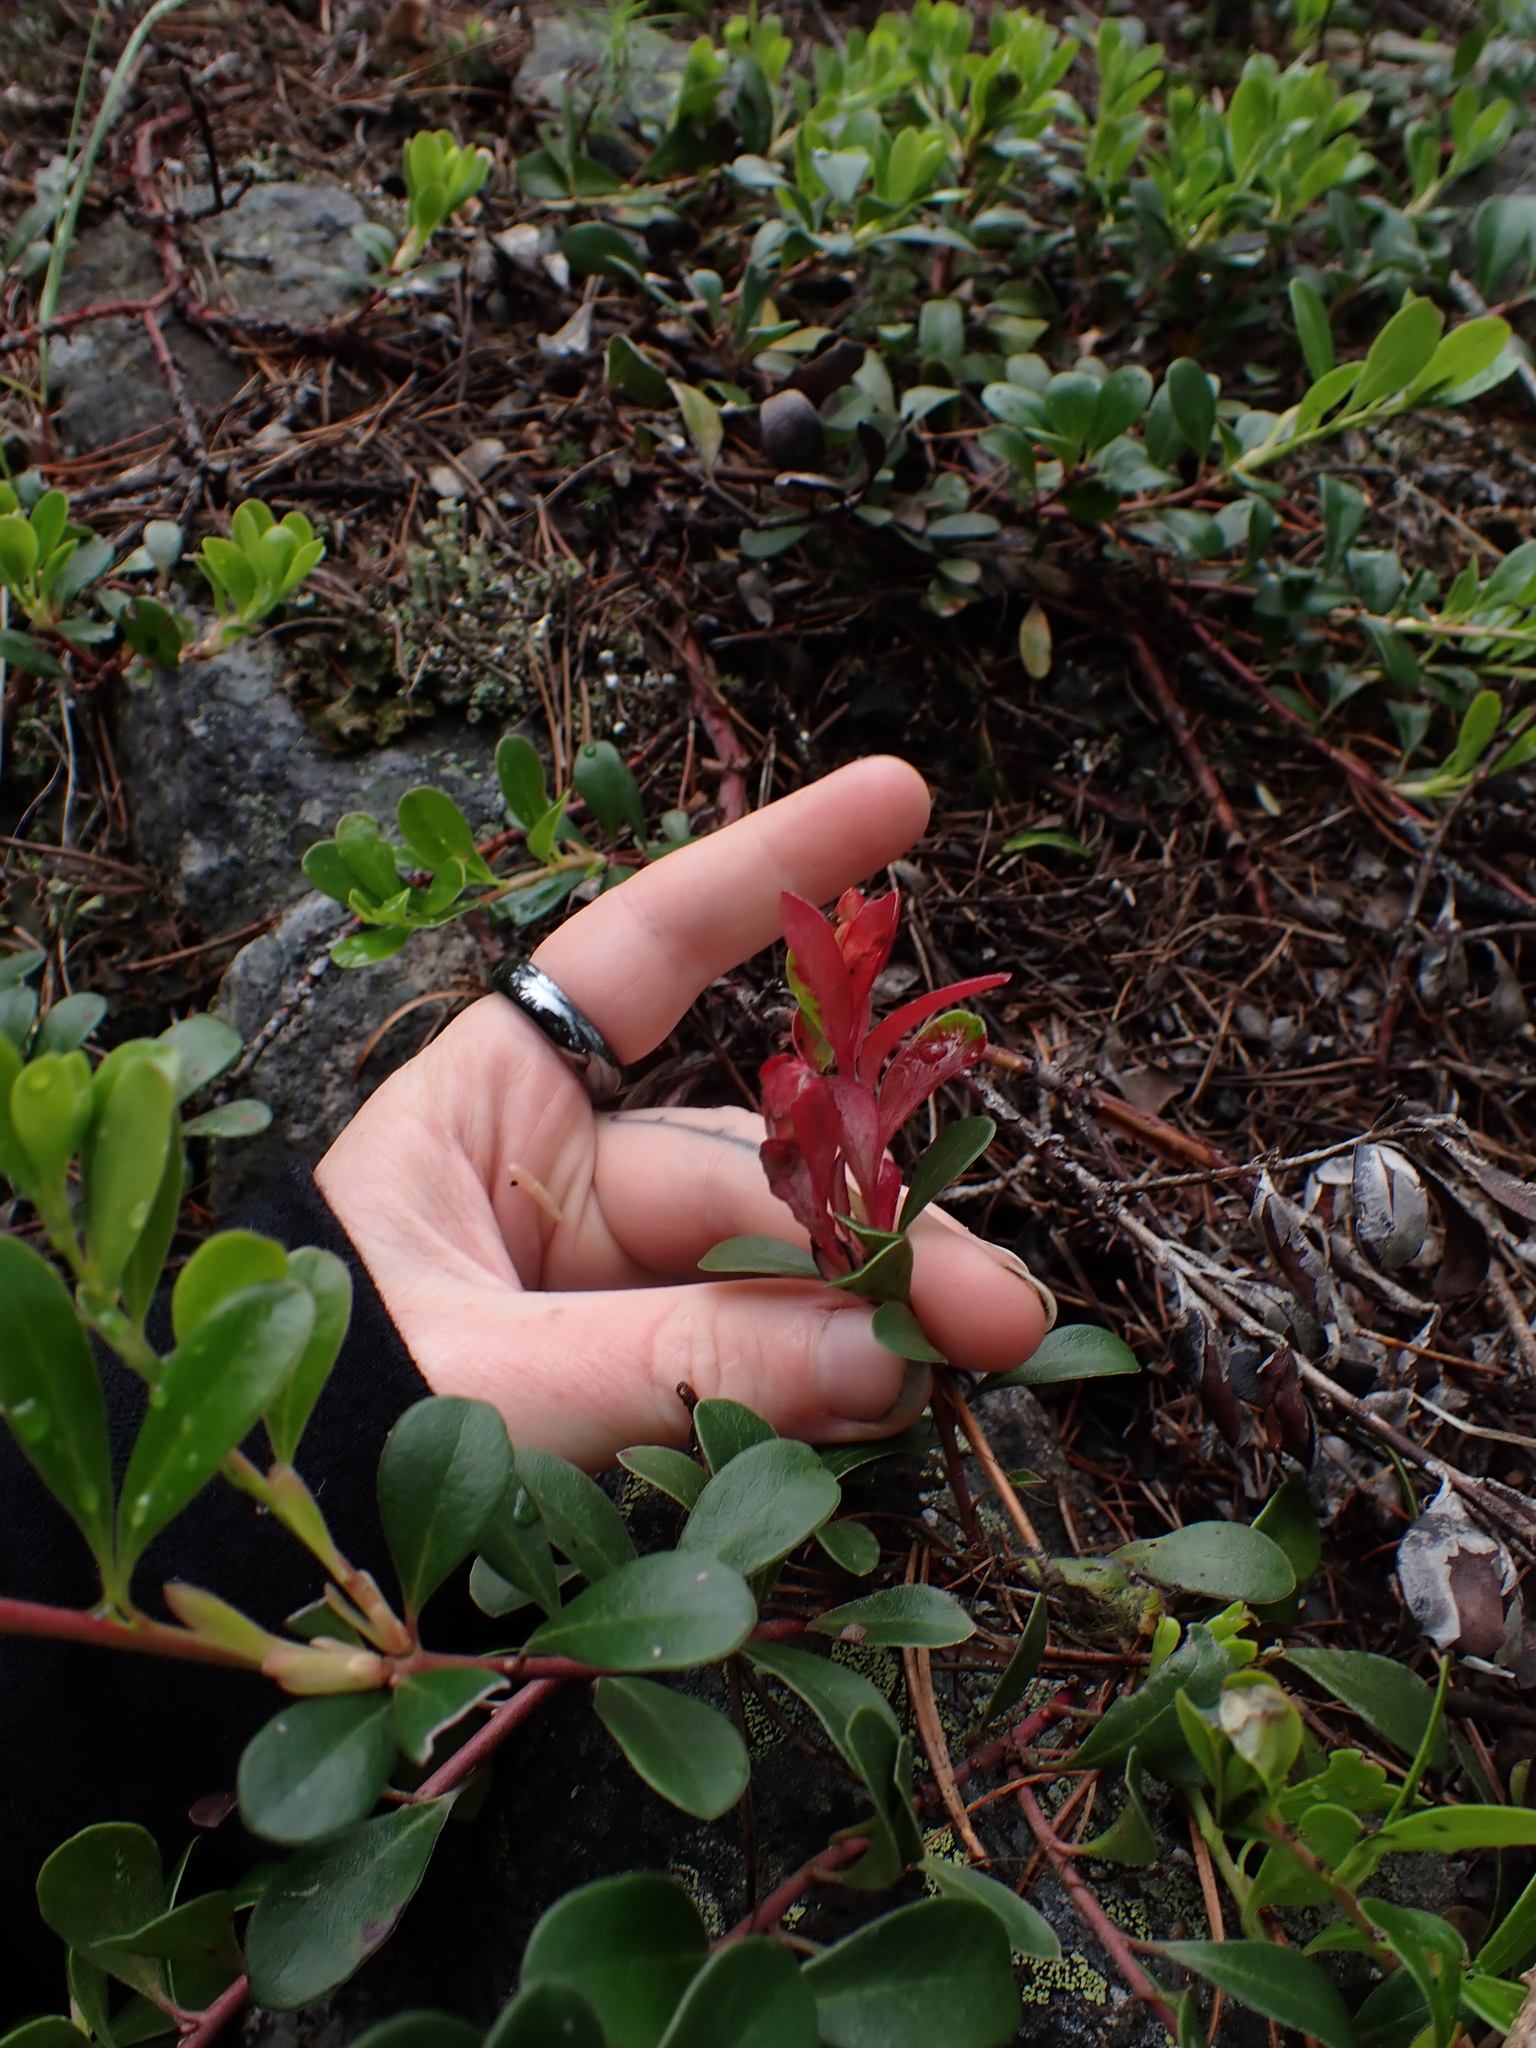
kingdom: Plantae
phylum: Tracheophyta
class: Magnoliopsida
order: Ericales
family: Ericaceae
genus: Arctostaphylos
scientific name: Arctostaphylos uva-ursi
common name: Bearberry
